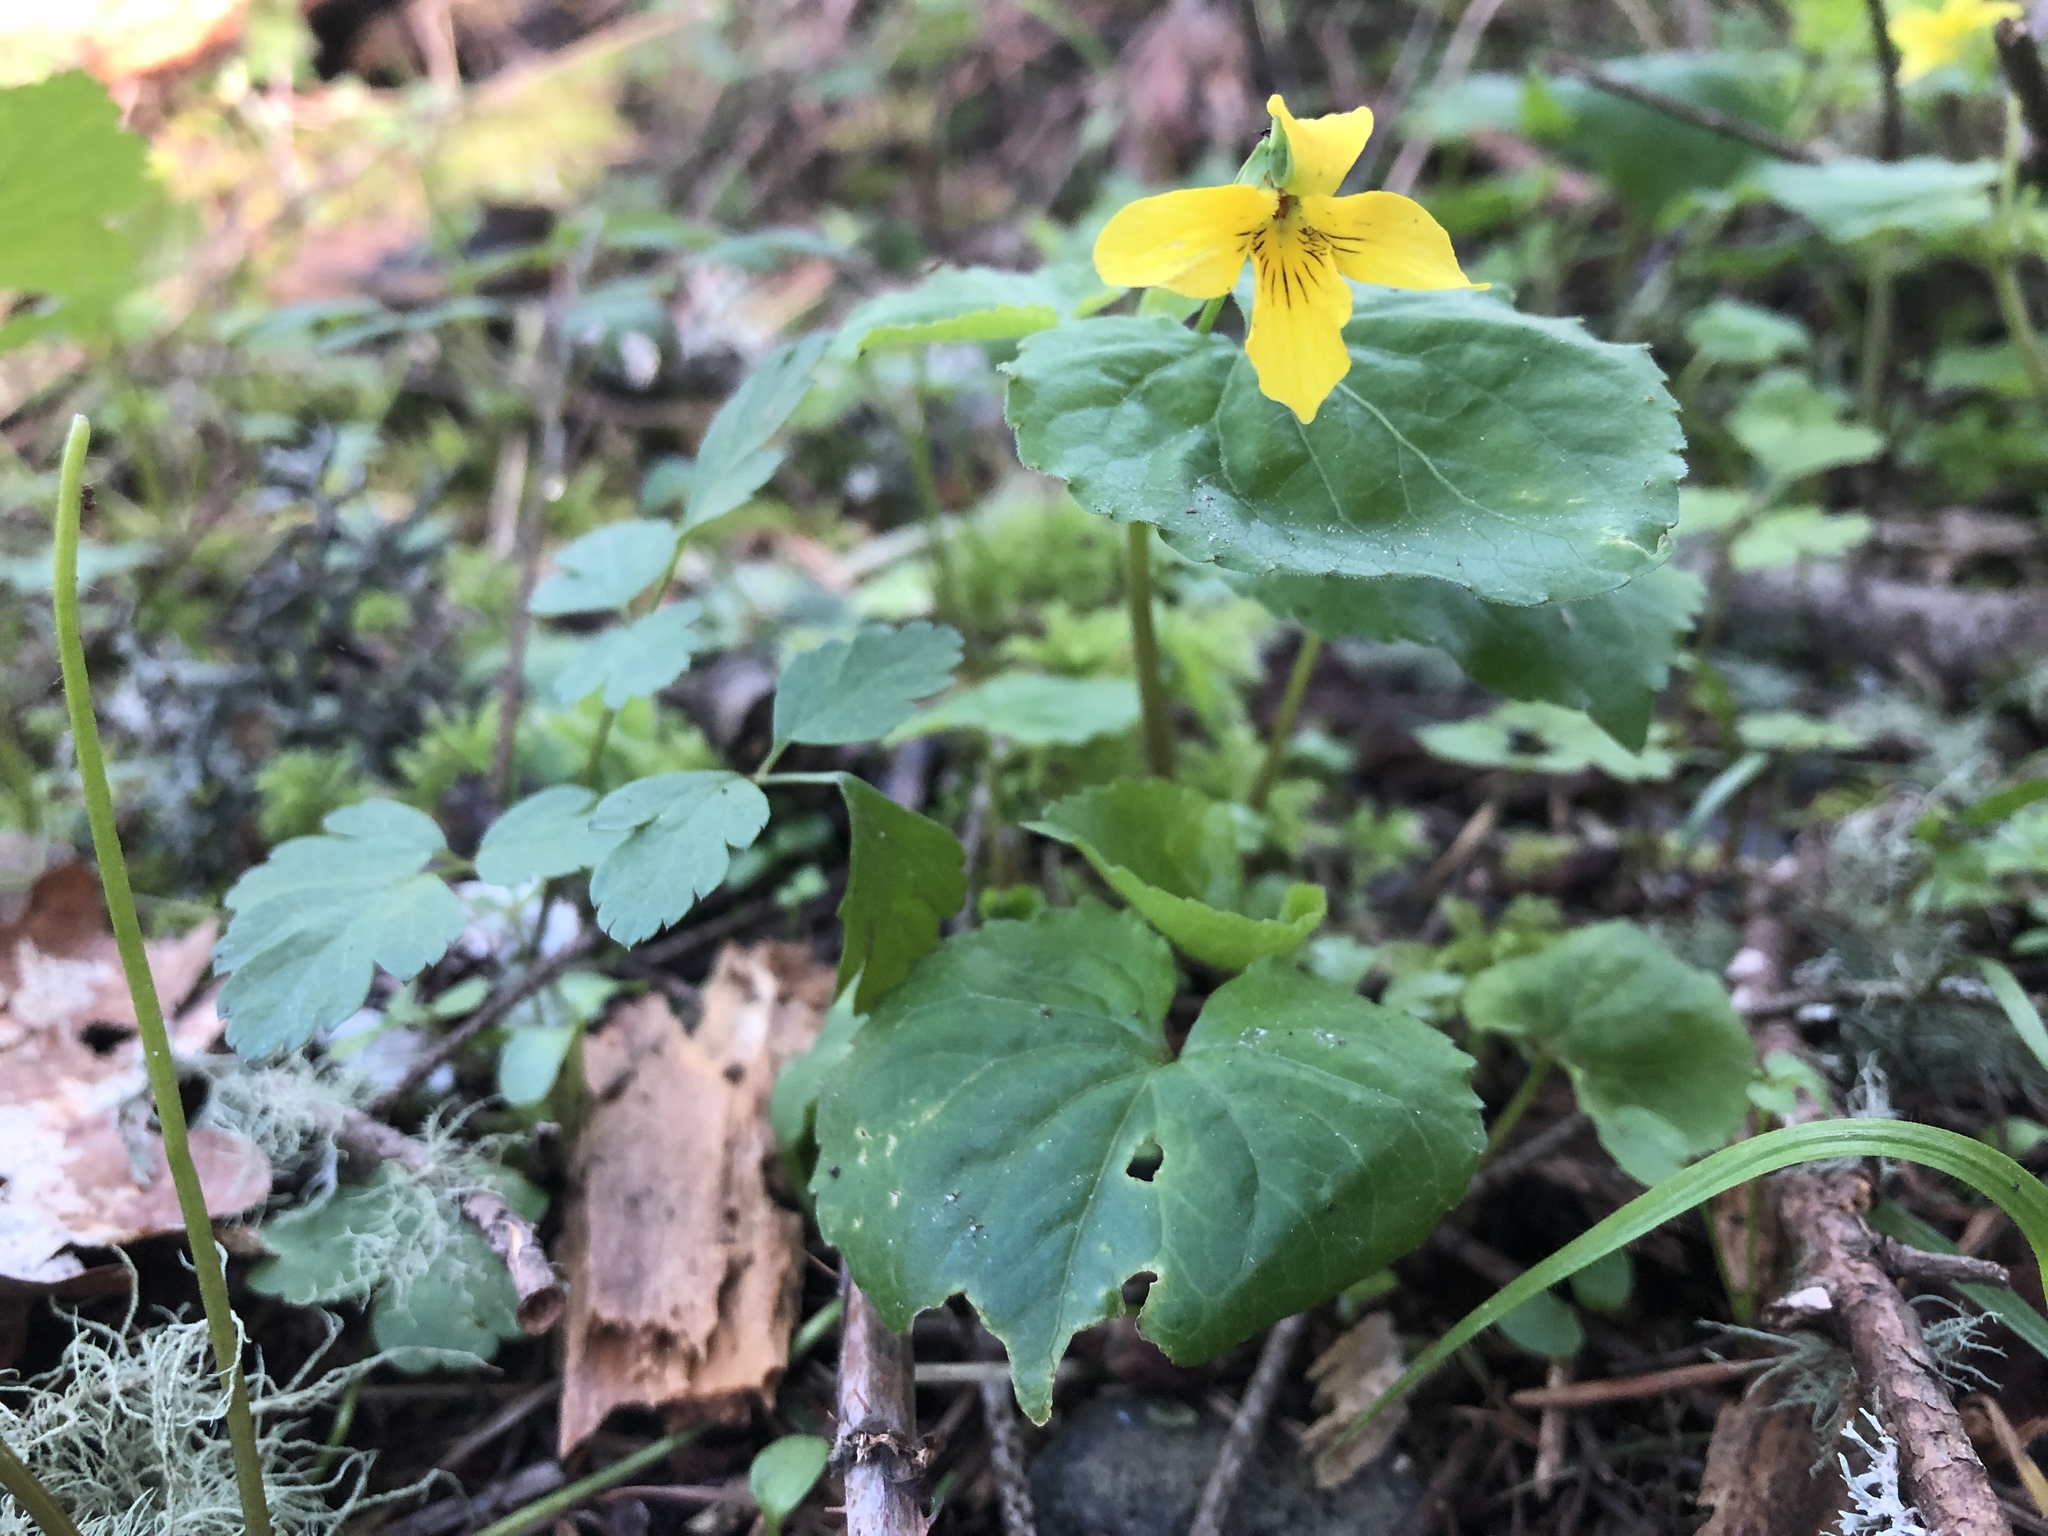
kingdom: Plantae
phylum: Tracheophyta
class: Magnoliopsida
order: Malpighiales
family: Violaceae
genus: Viola
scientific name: Viola glabella
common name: Stream violet
